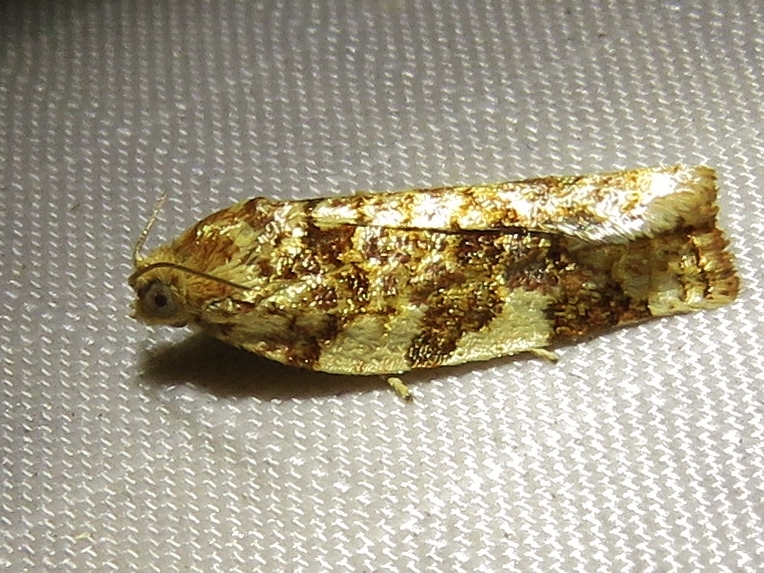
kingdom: Animalia
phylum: Arthropoda
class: Insecta
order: Lepidoptera
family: Tortricidae
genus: Archips
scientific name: Archips argyrospila
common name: Fruit-tree leafroller moth
